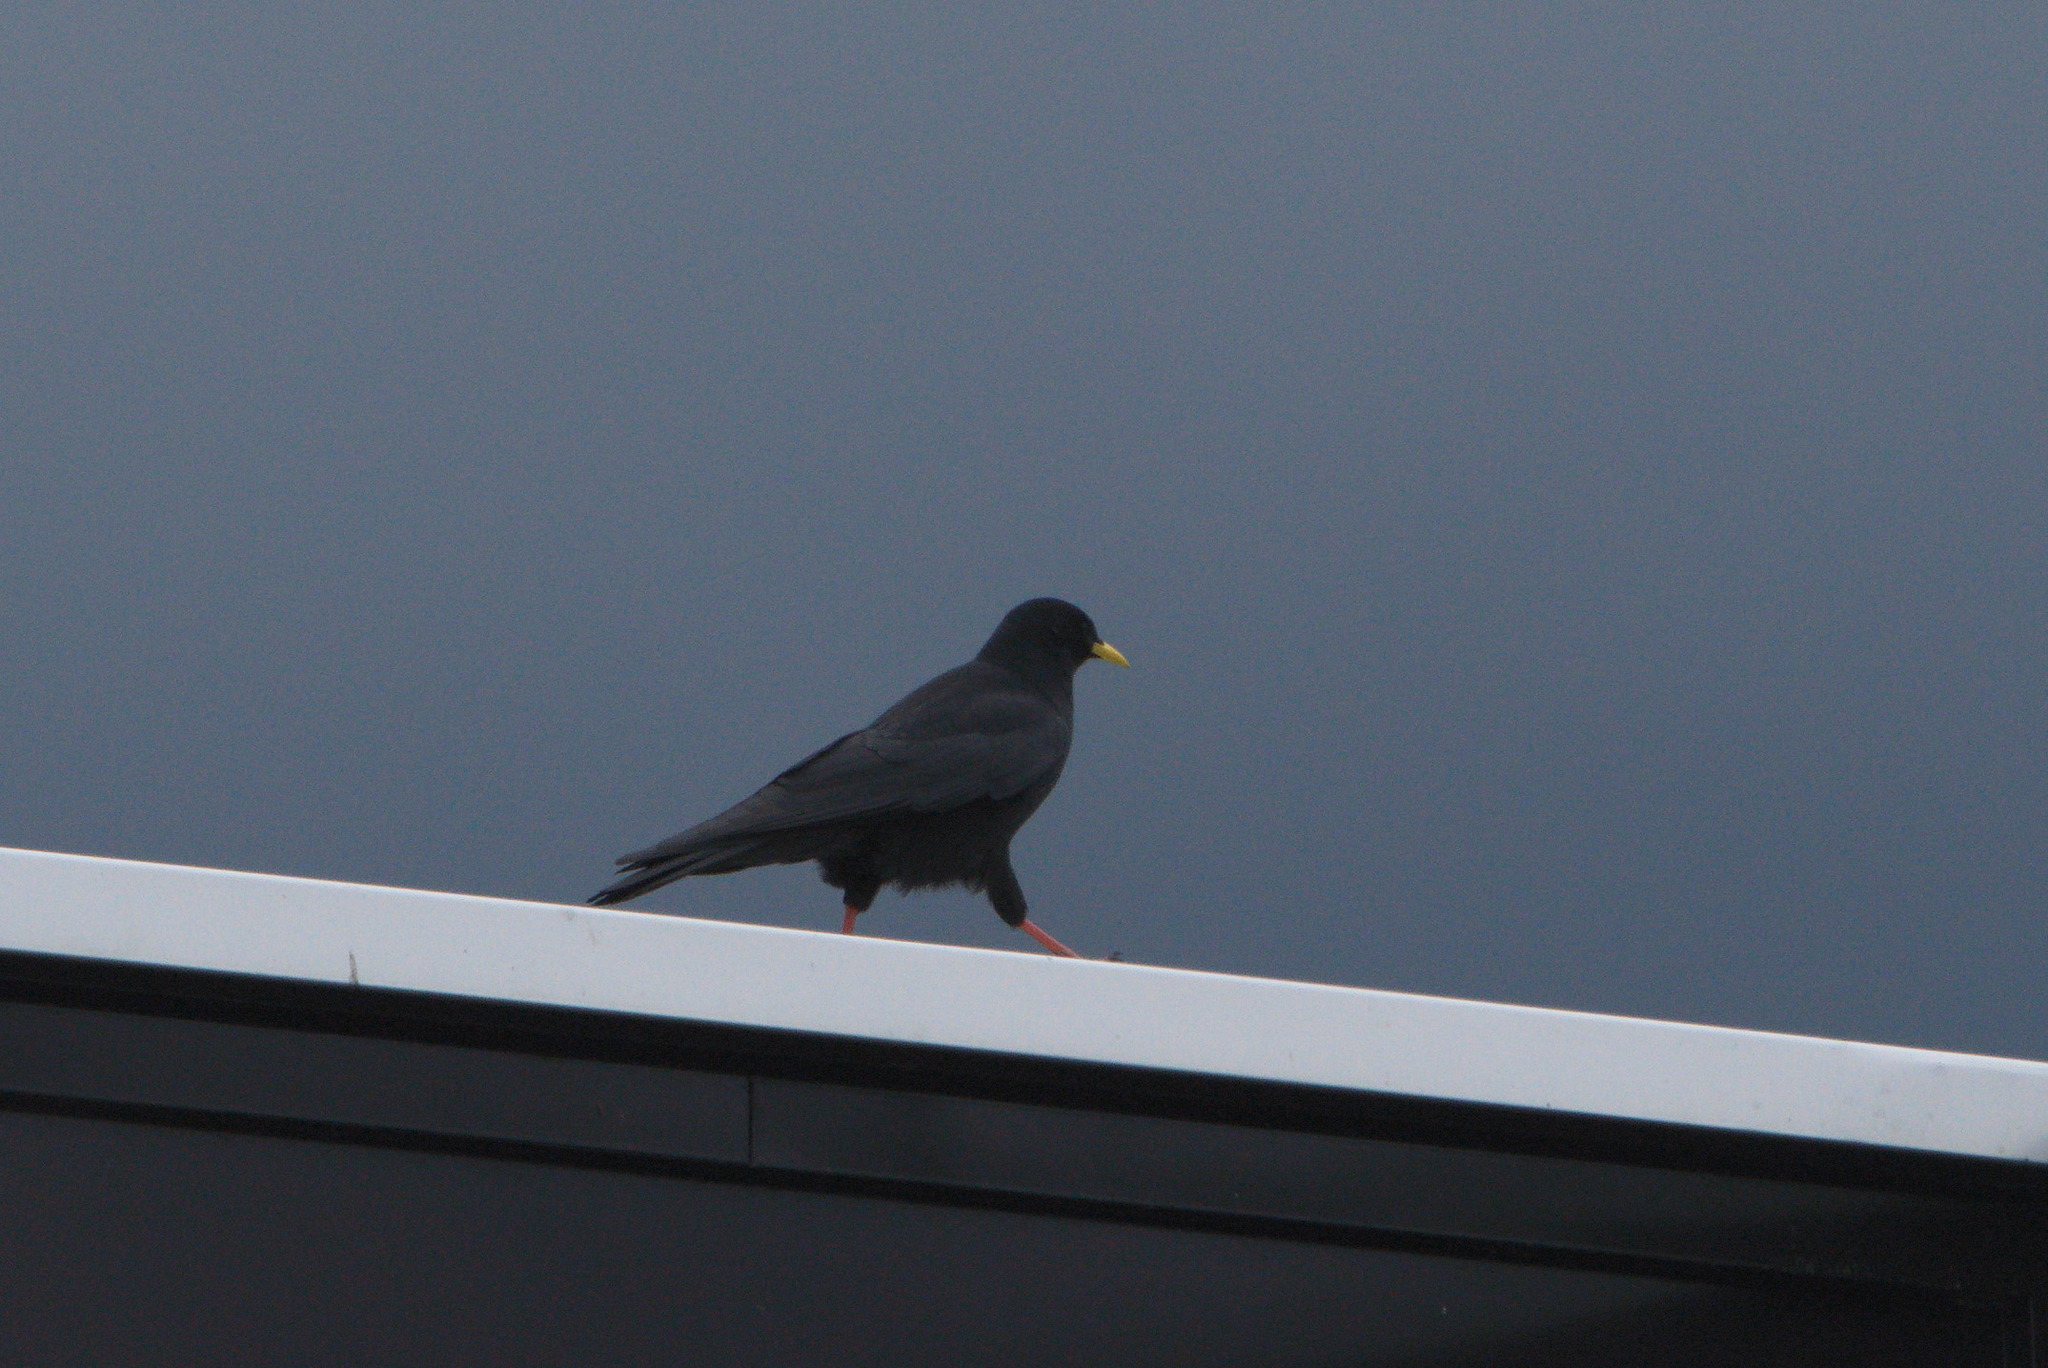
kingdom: Animalia
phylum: Chordata
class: Aves
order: Passeriformes
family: Corvidae
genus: Pyrrhocorax
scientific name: Pyrrhocorax graculus
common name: Alpine chough
